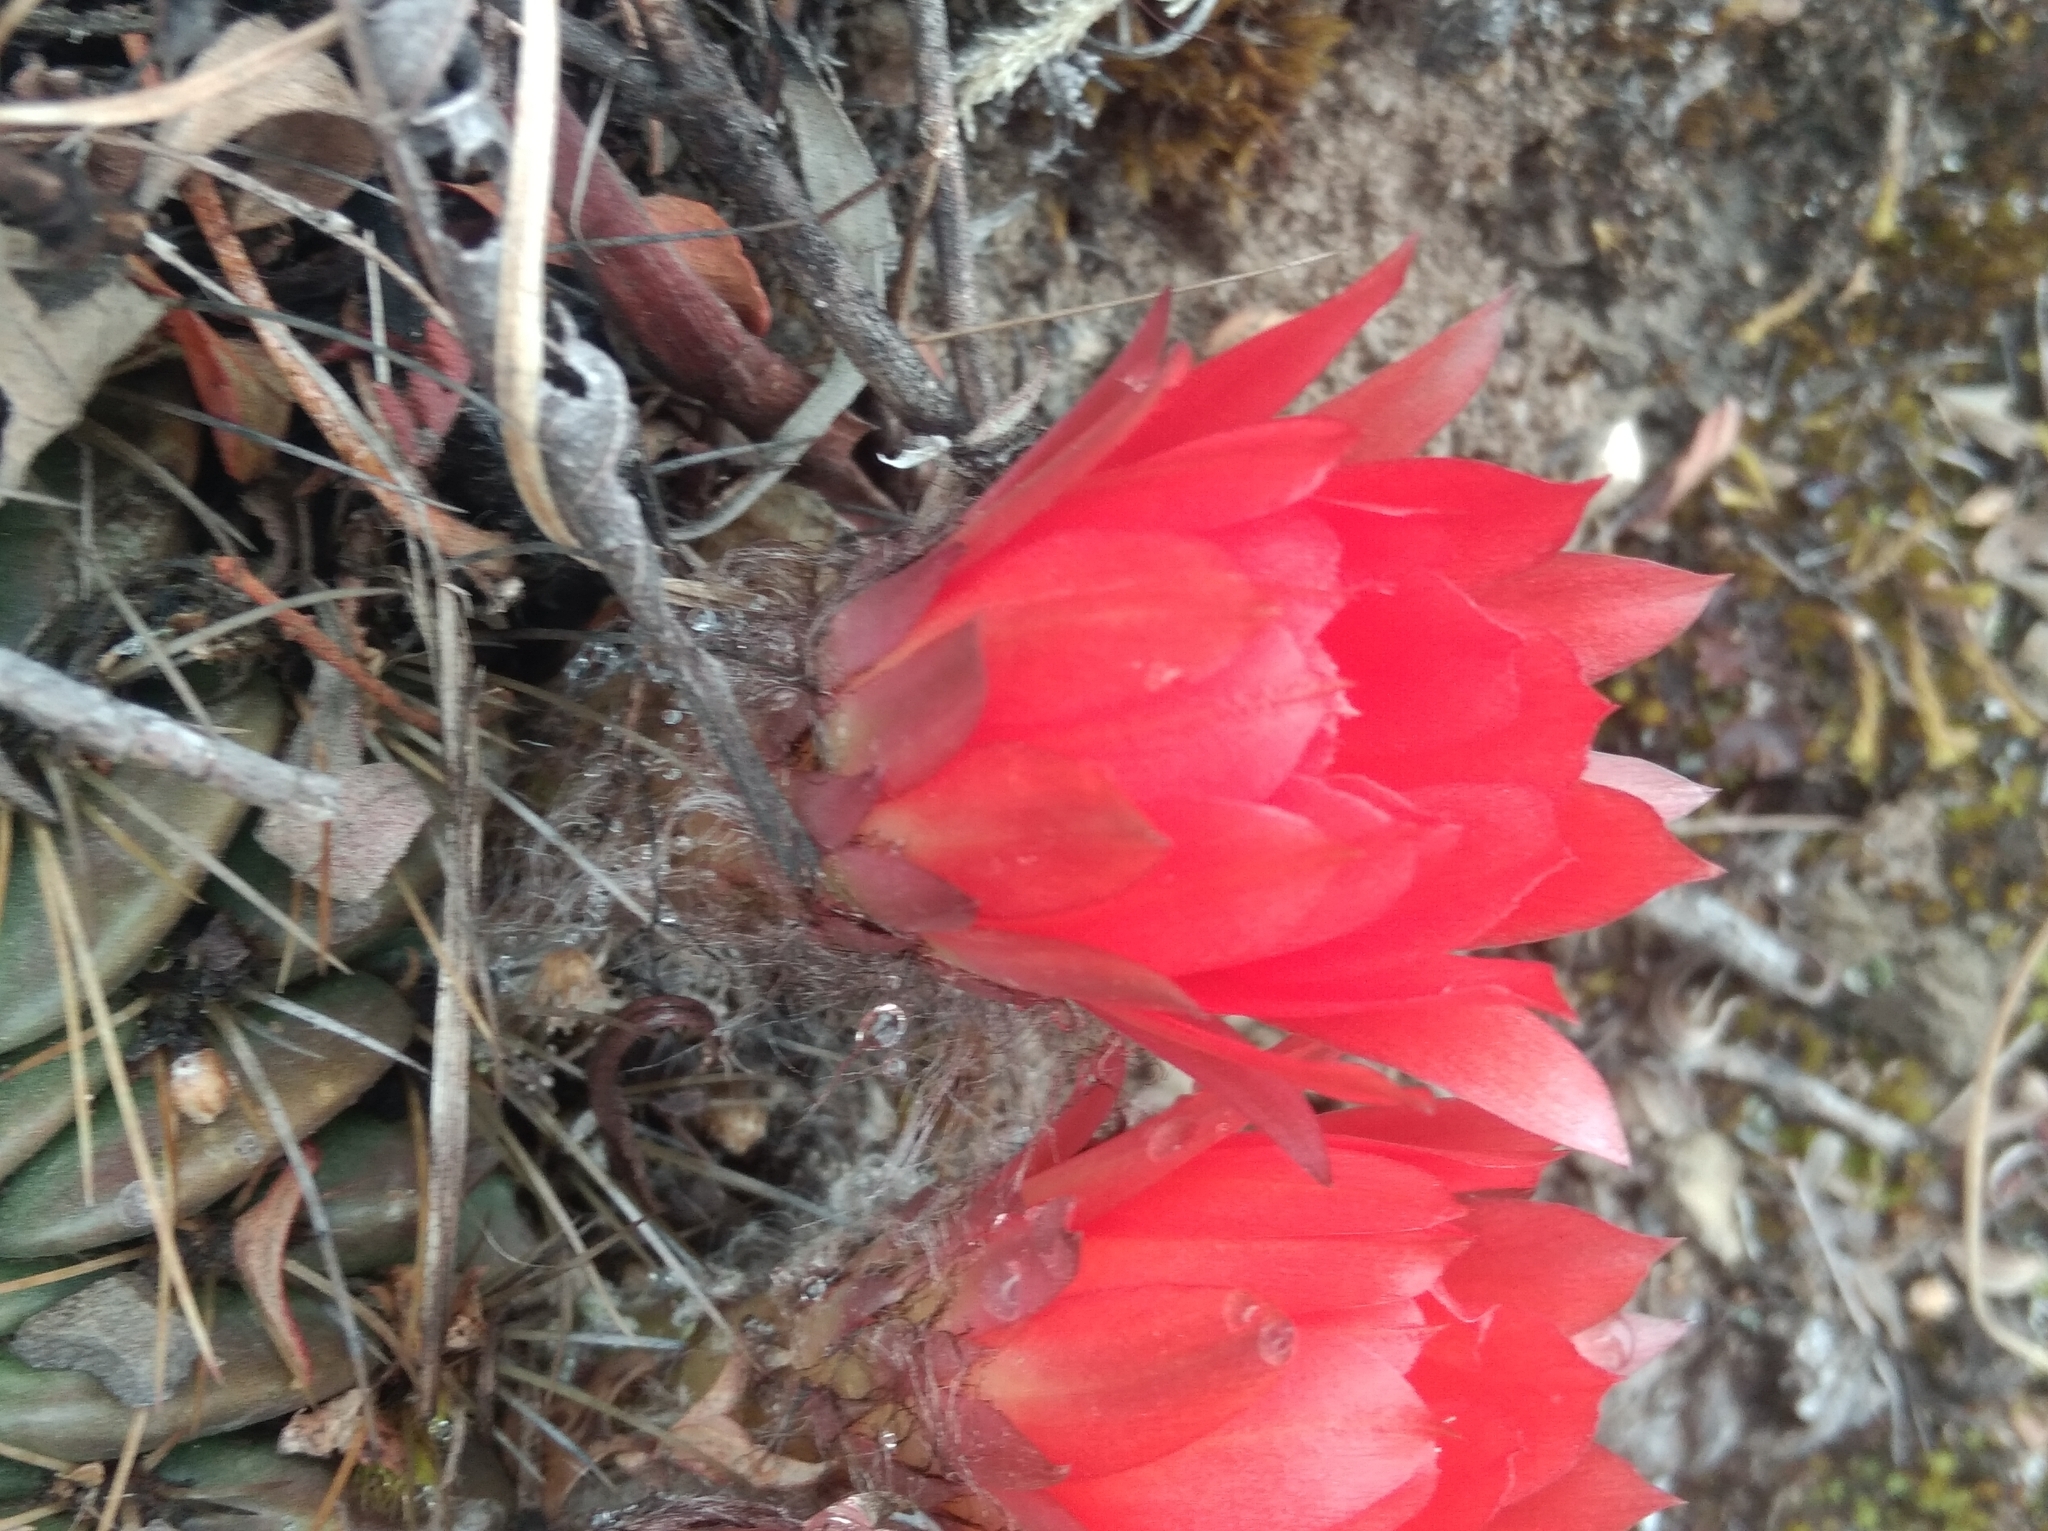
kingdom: Plantae
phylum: Tracheophyta
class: Magnoliopsida
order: Caryophyllales
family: Cactaceae
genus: Lobivia
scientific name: Lobivia chrysochete
